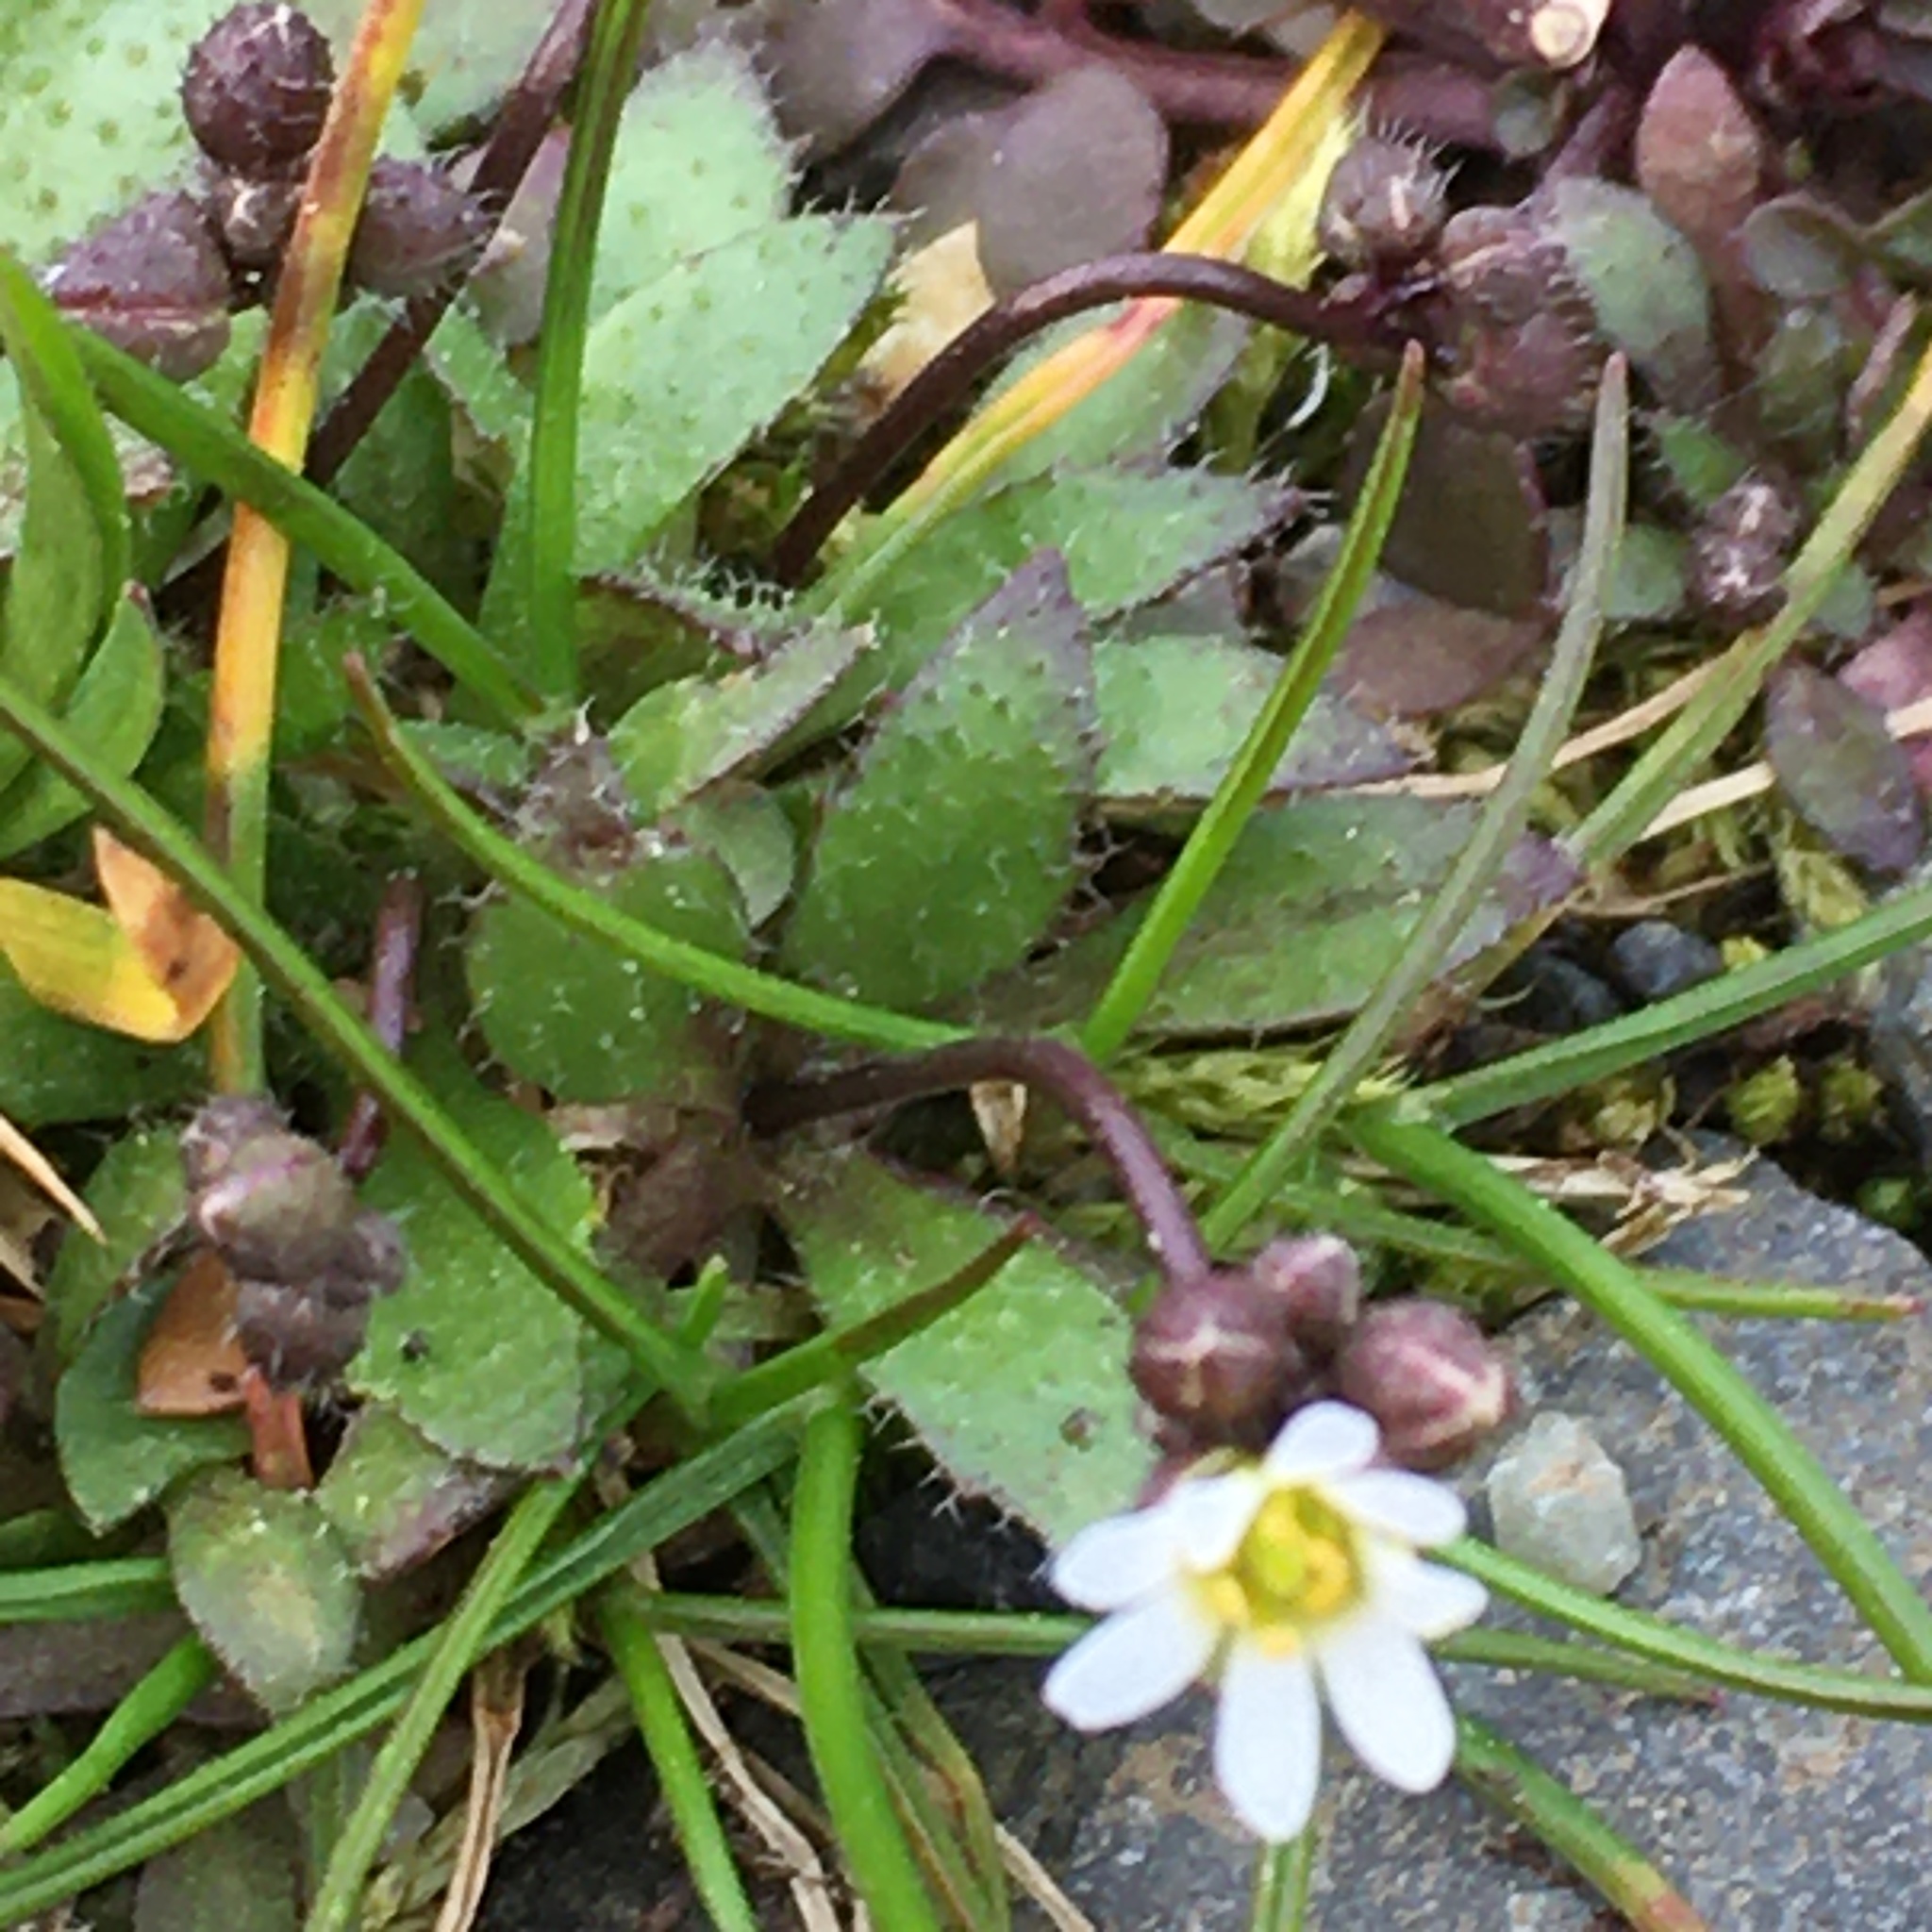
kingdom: Plantae
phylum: Tracheophyta
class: Magnoliopsida
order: Brassicales
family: Brassicaceae
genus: Draba
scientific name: Draba verna
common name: Spring draba
